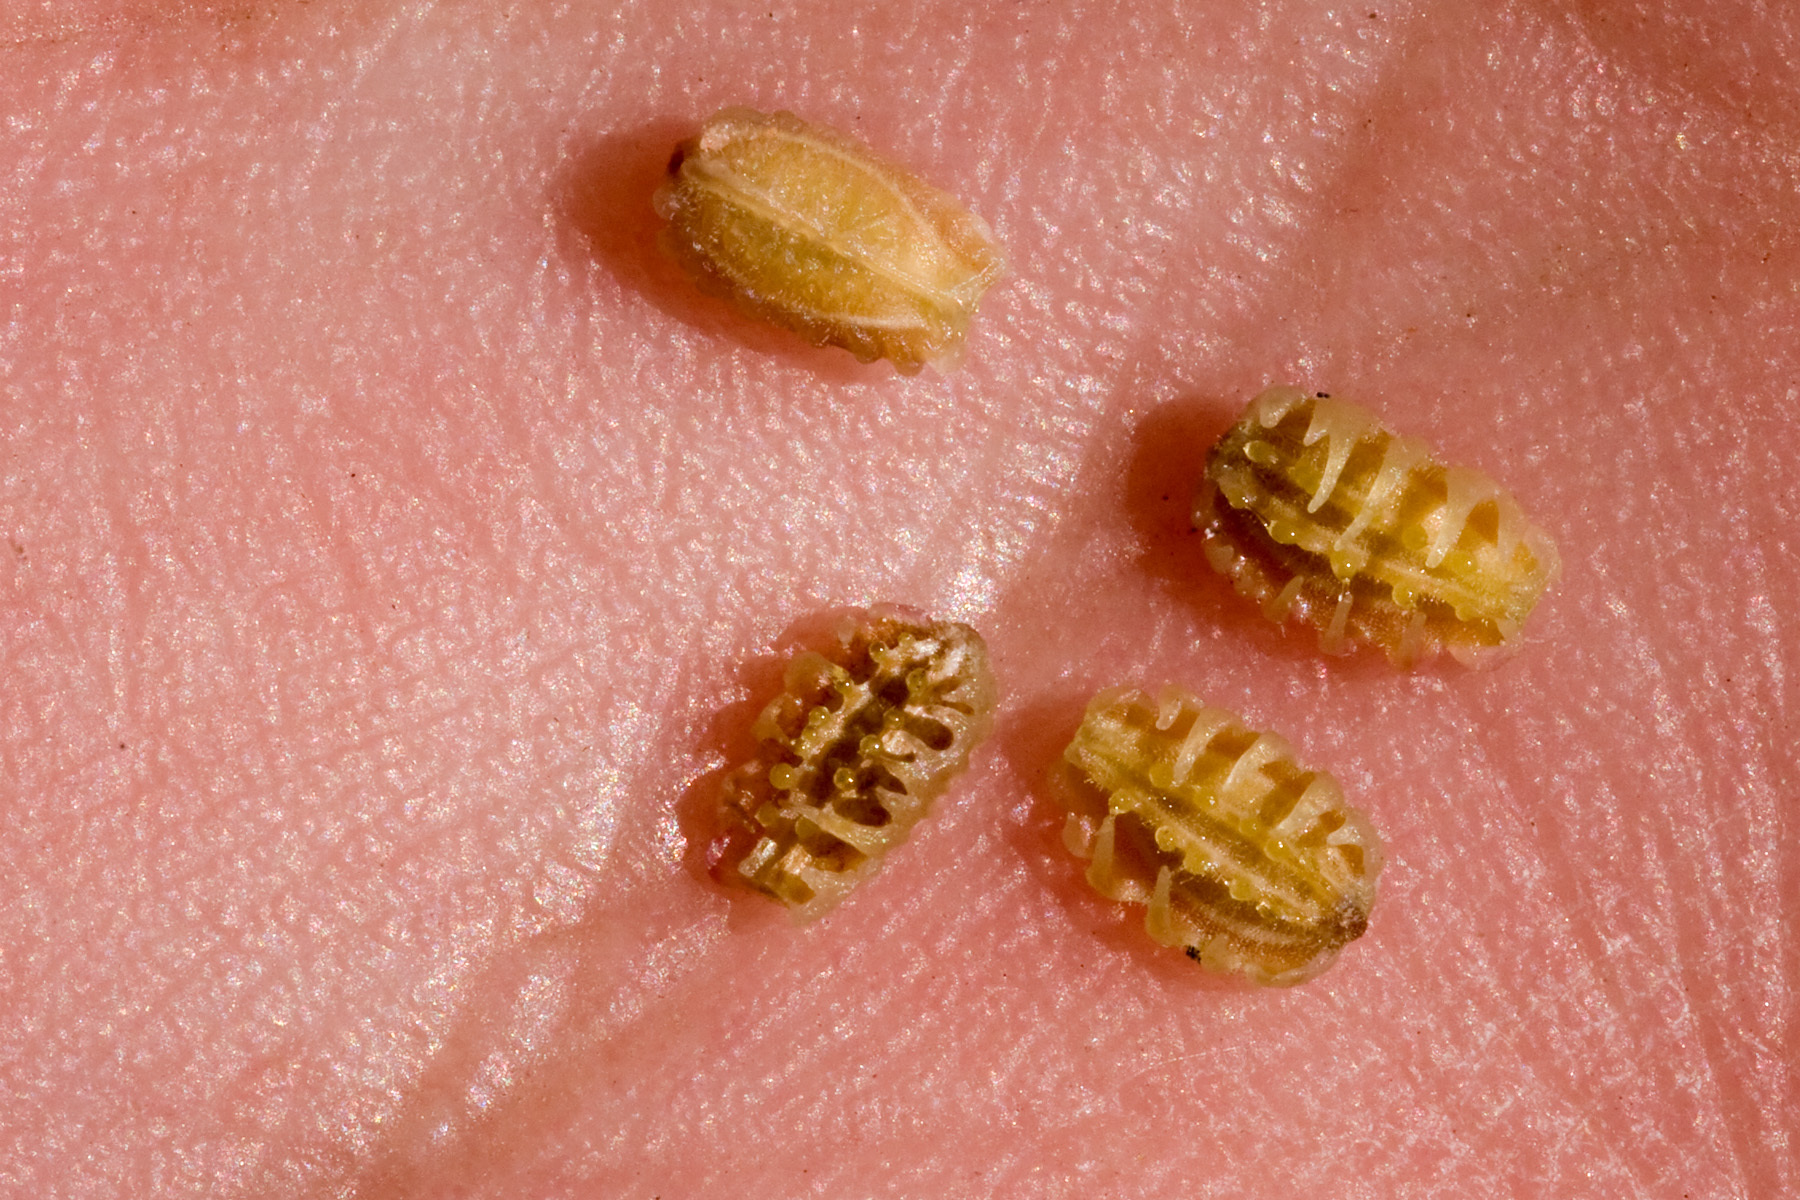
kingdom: Plantae
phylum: Tracheophyta
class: Magnoliopsida
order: Caryophyllales
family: Nyctaginaceae
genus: Allionia
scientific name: Allionia choisyi
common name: Trailing-four-o'clock
